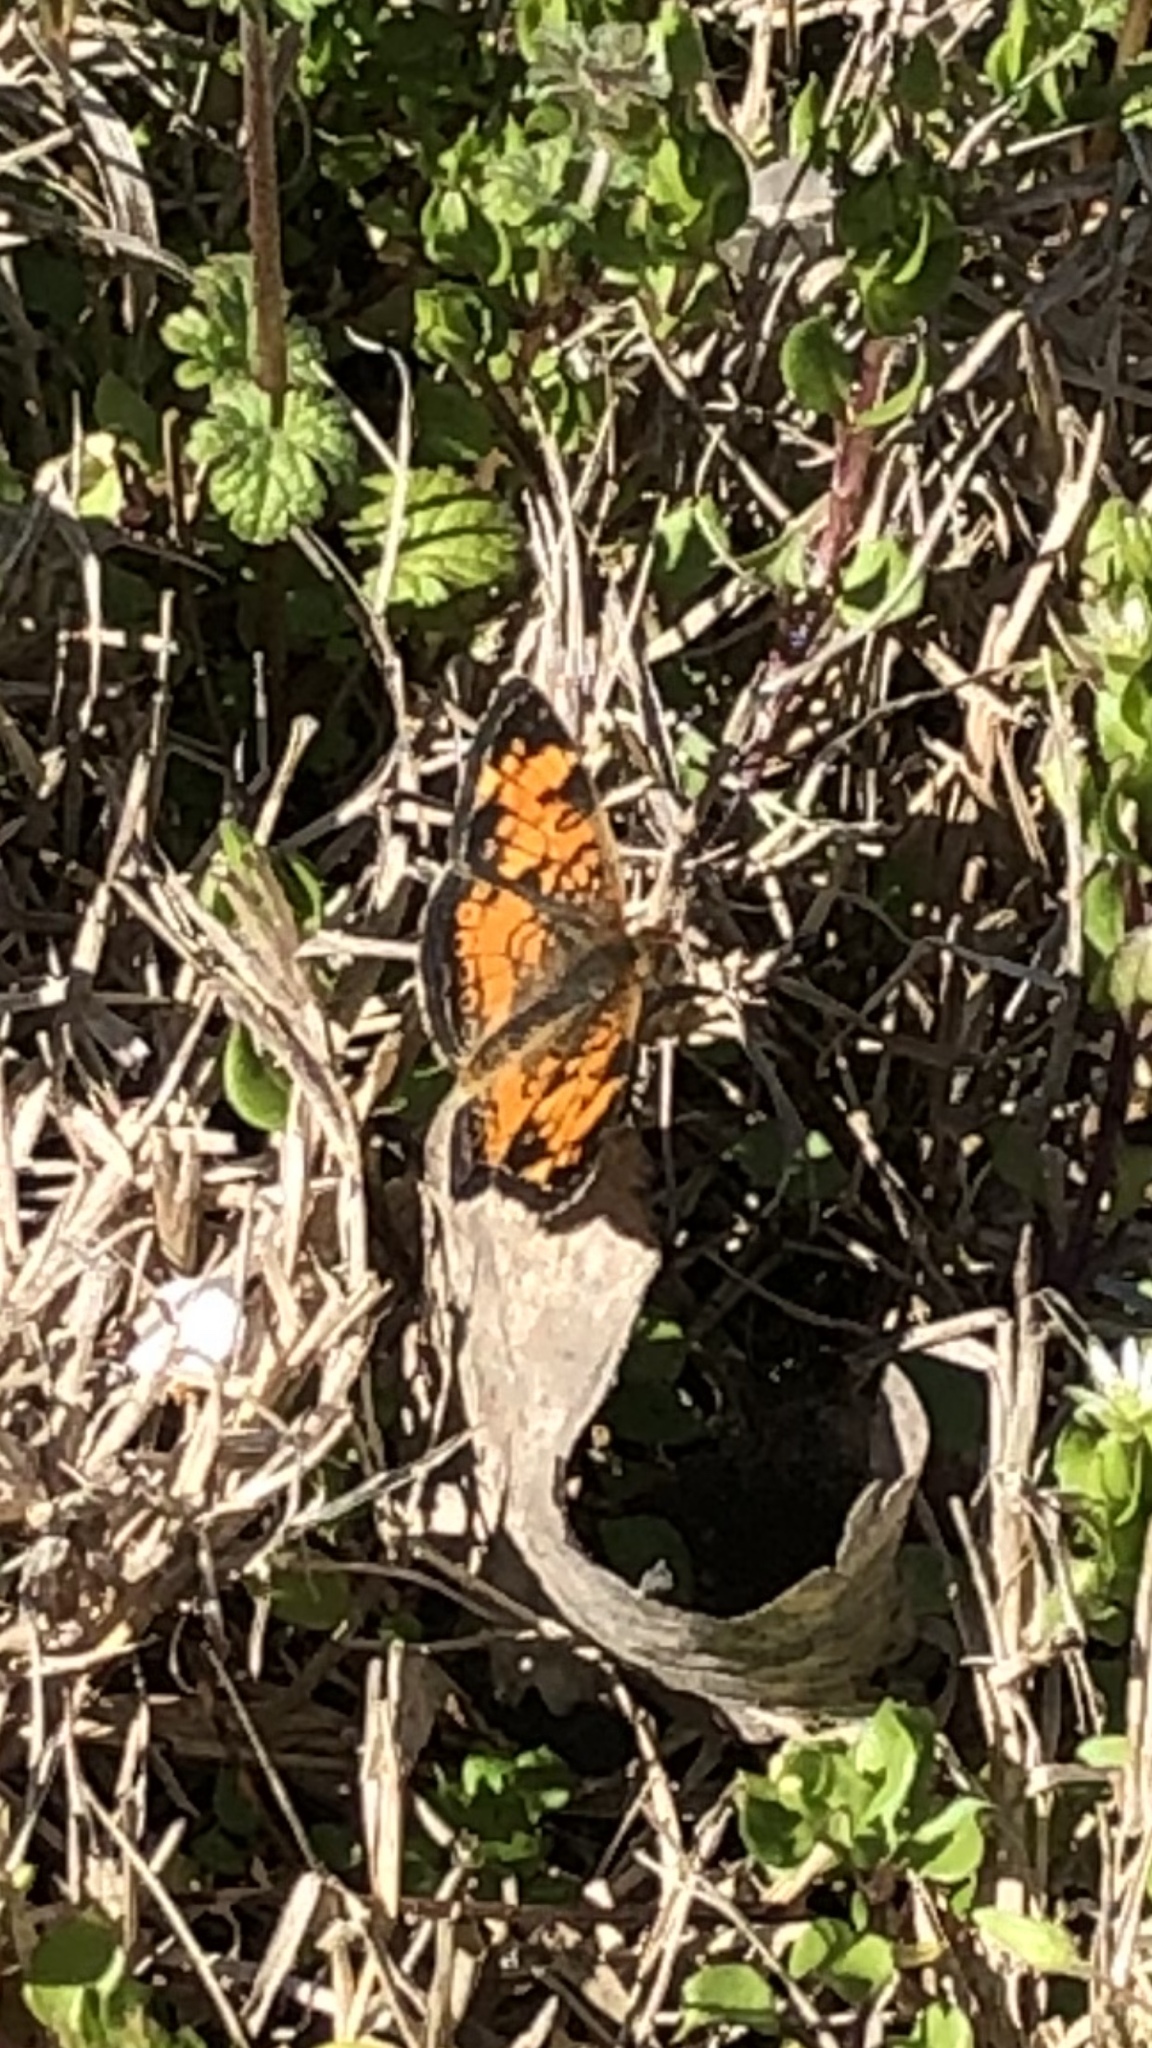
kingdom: Animalia
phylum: Arthropoda
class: Insecta
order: Lepidoptera
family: Nymphalidae
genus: Phyciodes
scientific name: Phyciodes tharos
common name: Pearl crescent
